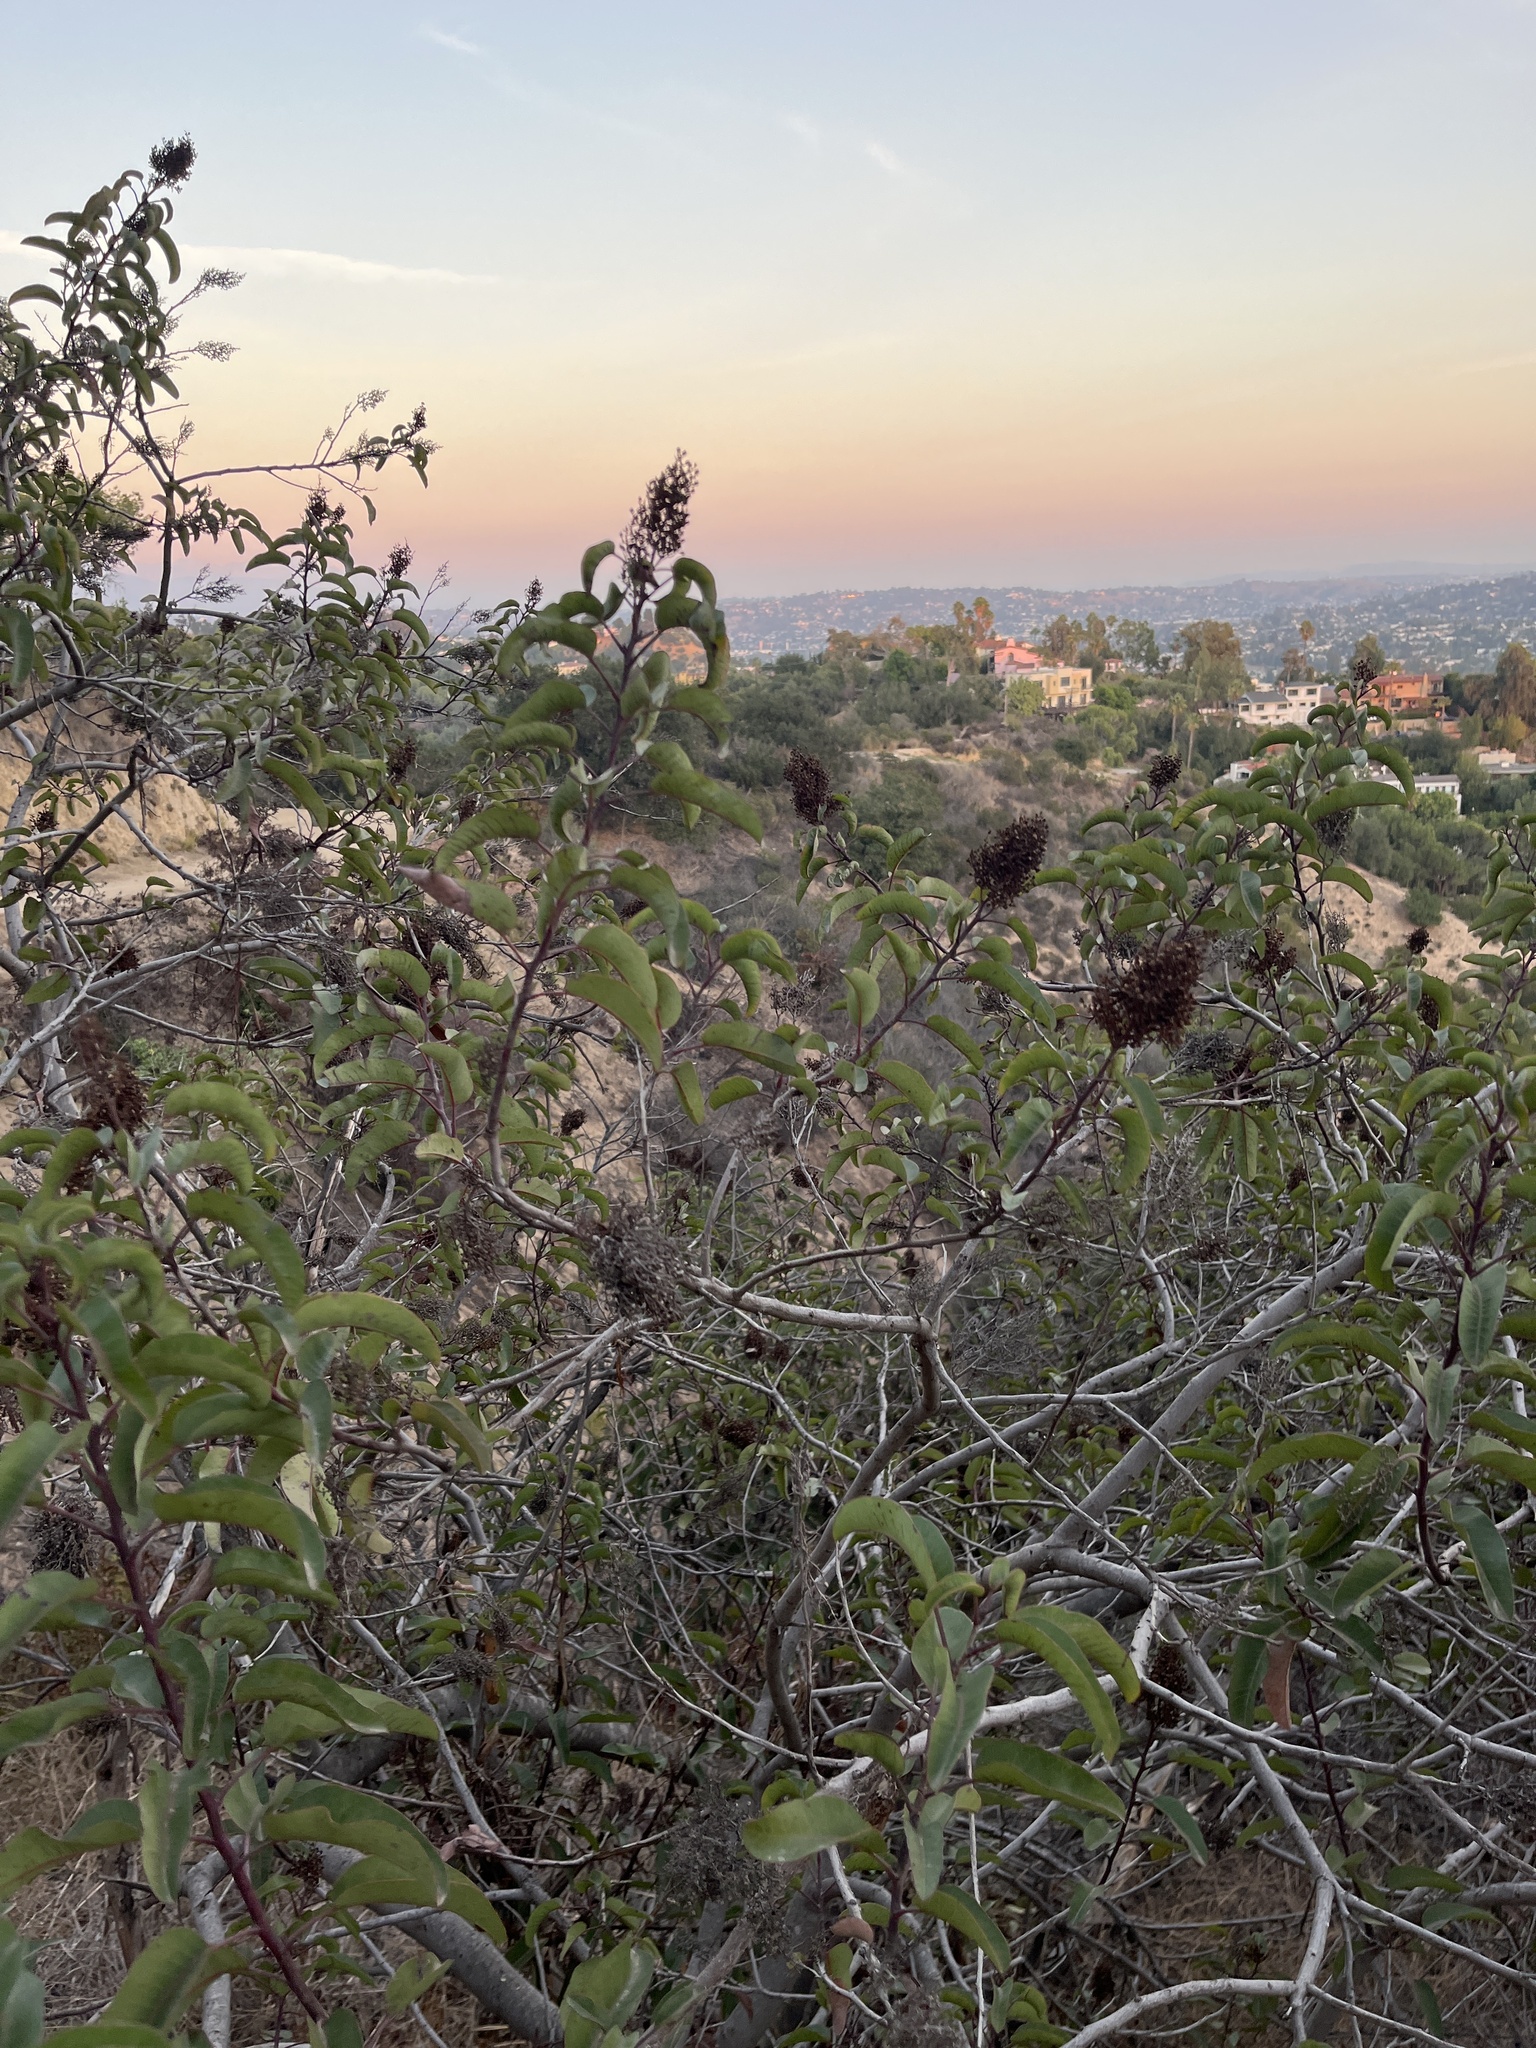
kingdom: Plantae
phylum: Tracheophyta
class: Magnoliopsida
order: Sapindales
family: Anacardiaceae
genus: Malosma
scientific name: Malosma laurina
